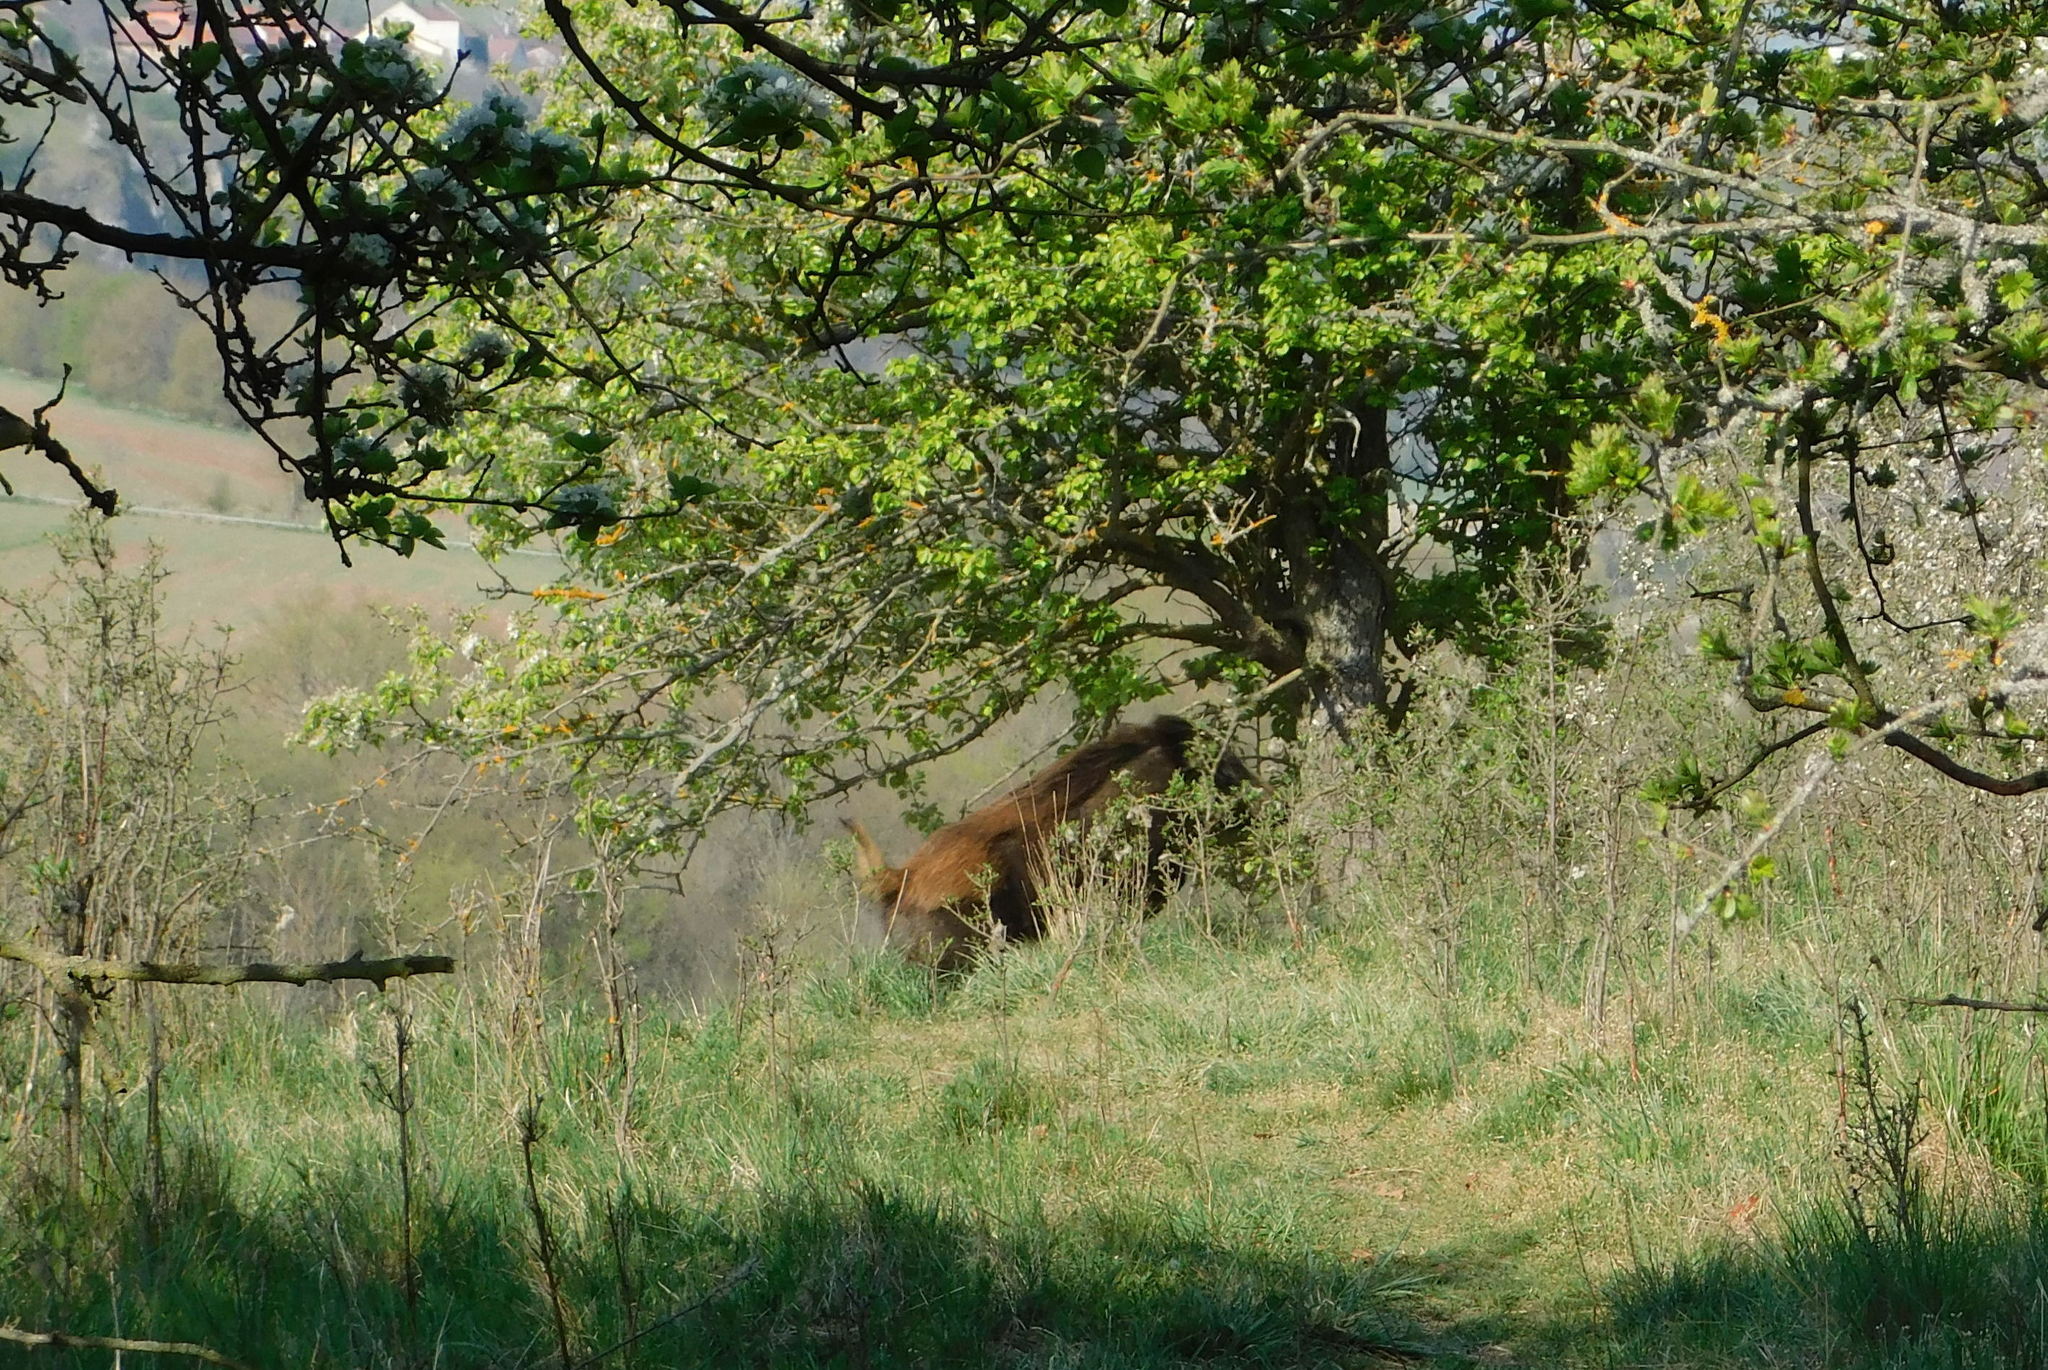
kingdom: Animalia
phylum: Chordata
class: Mammalia
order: Artiodactyla
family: Suidae
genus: Sus
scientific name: Sus scrofa
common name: Wild boar
